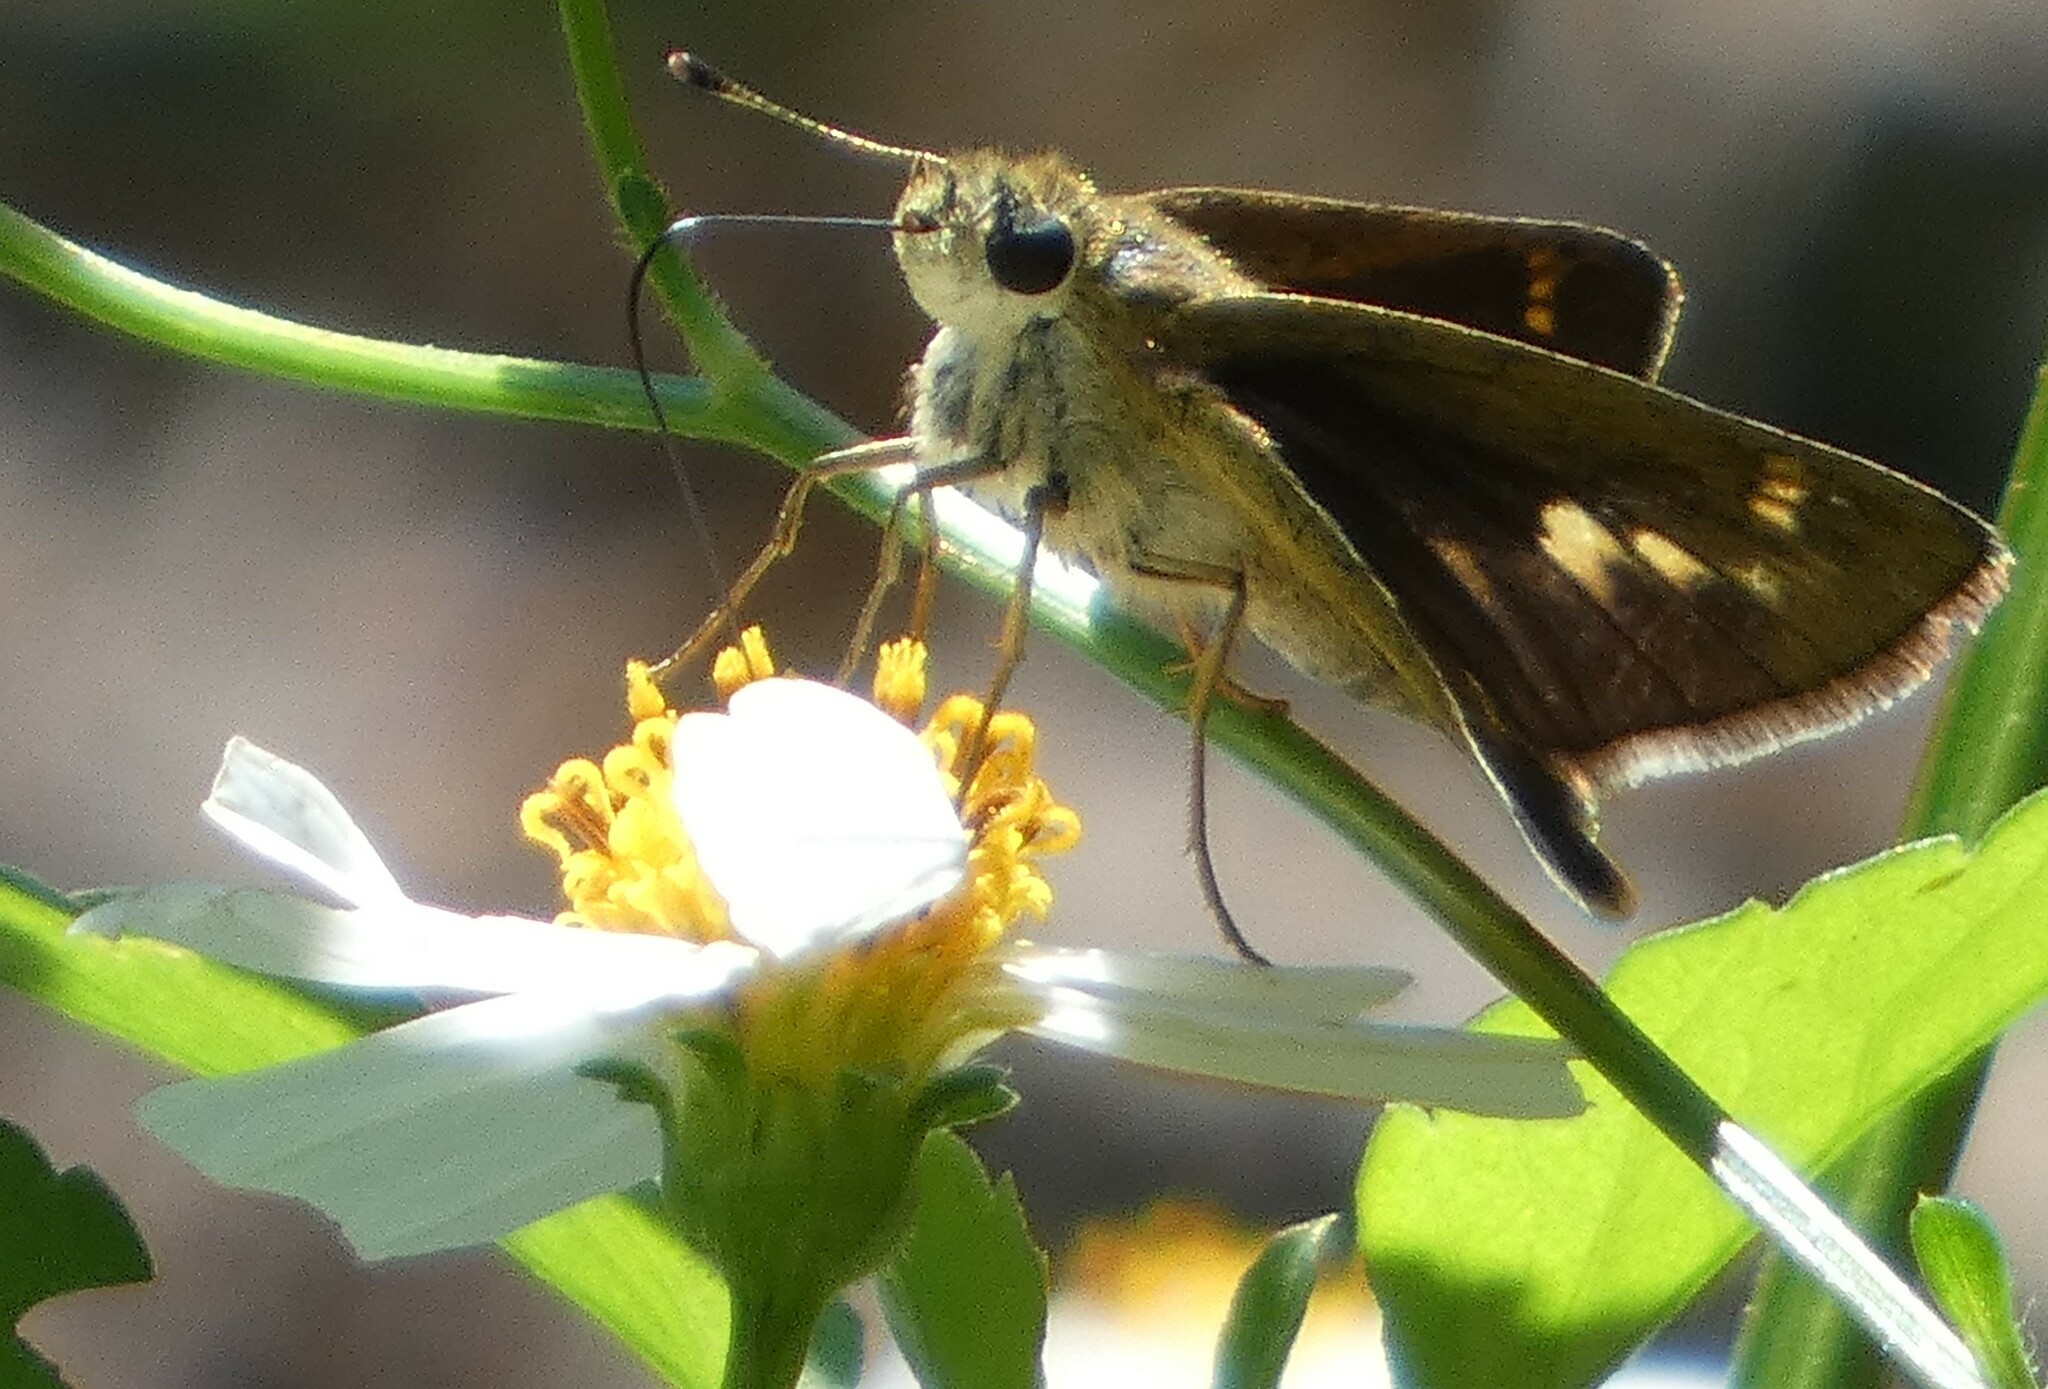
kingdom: Animalia
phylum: Arthropoda
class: Insecta
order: Lepidoptera
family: Hesperiidae
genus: Polites
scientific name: Polites vibex
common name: Whirlabout
